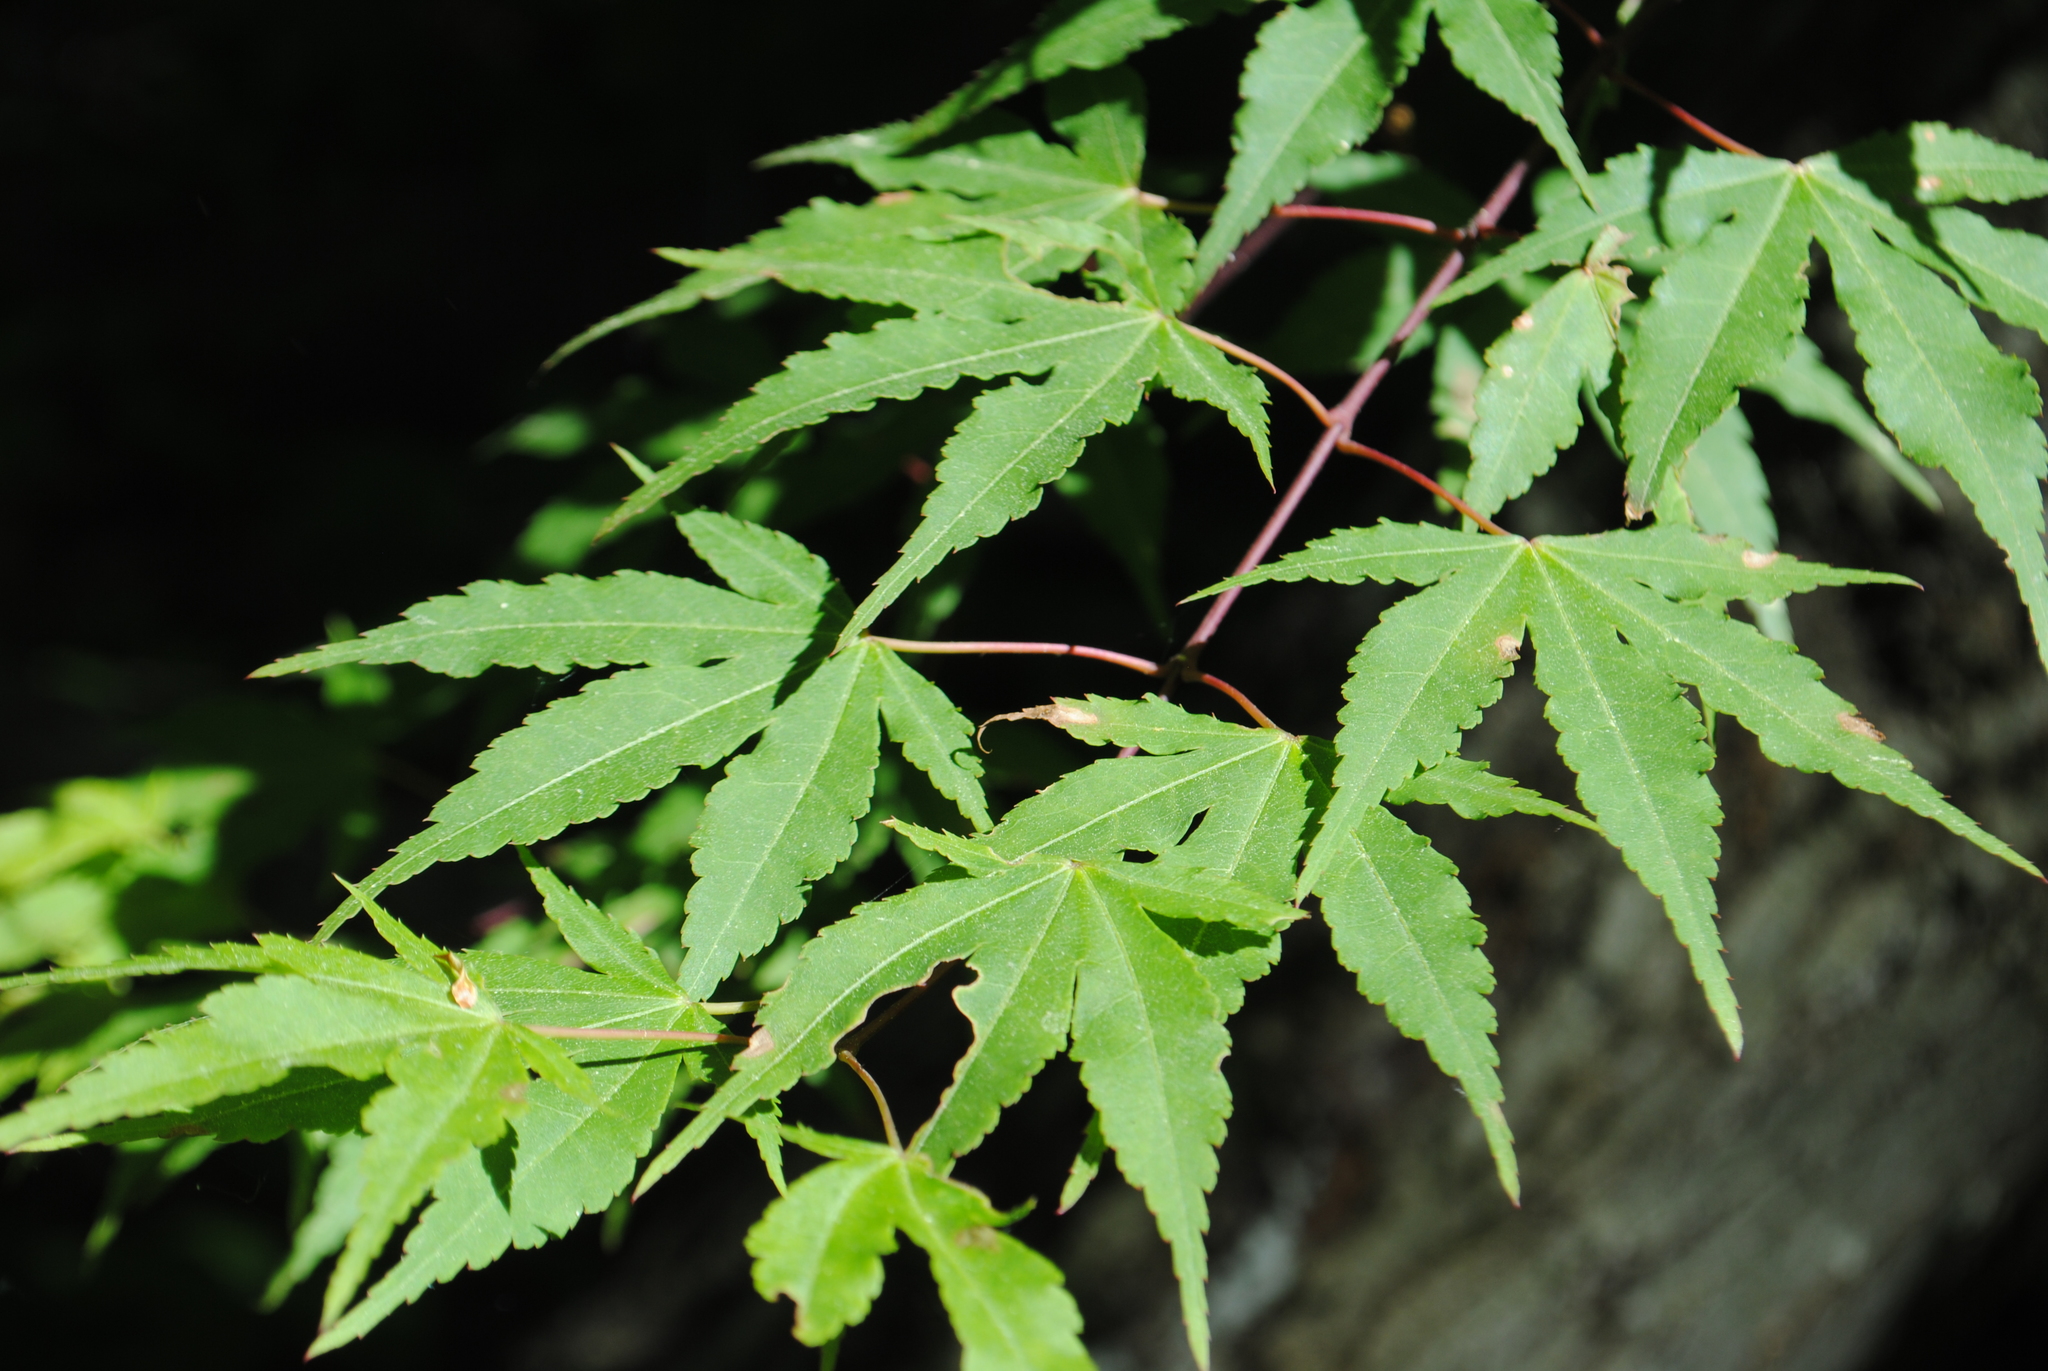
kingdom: Plantae
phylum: Tracheophyta
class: Magnoliopsida
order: Sapindales
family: Sapindaceae
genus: Acer
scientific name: Acer palmatum
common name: Japanese maple
